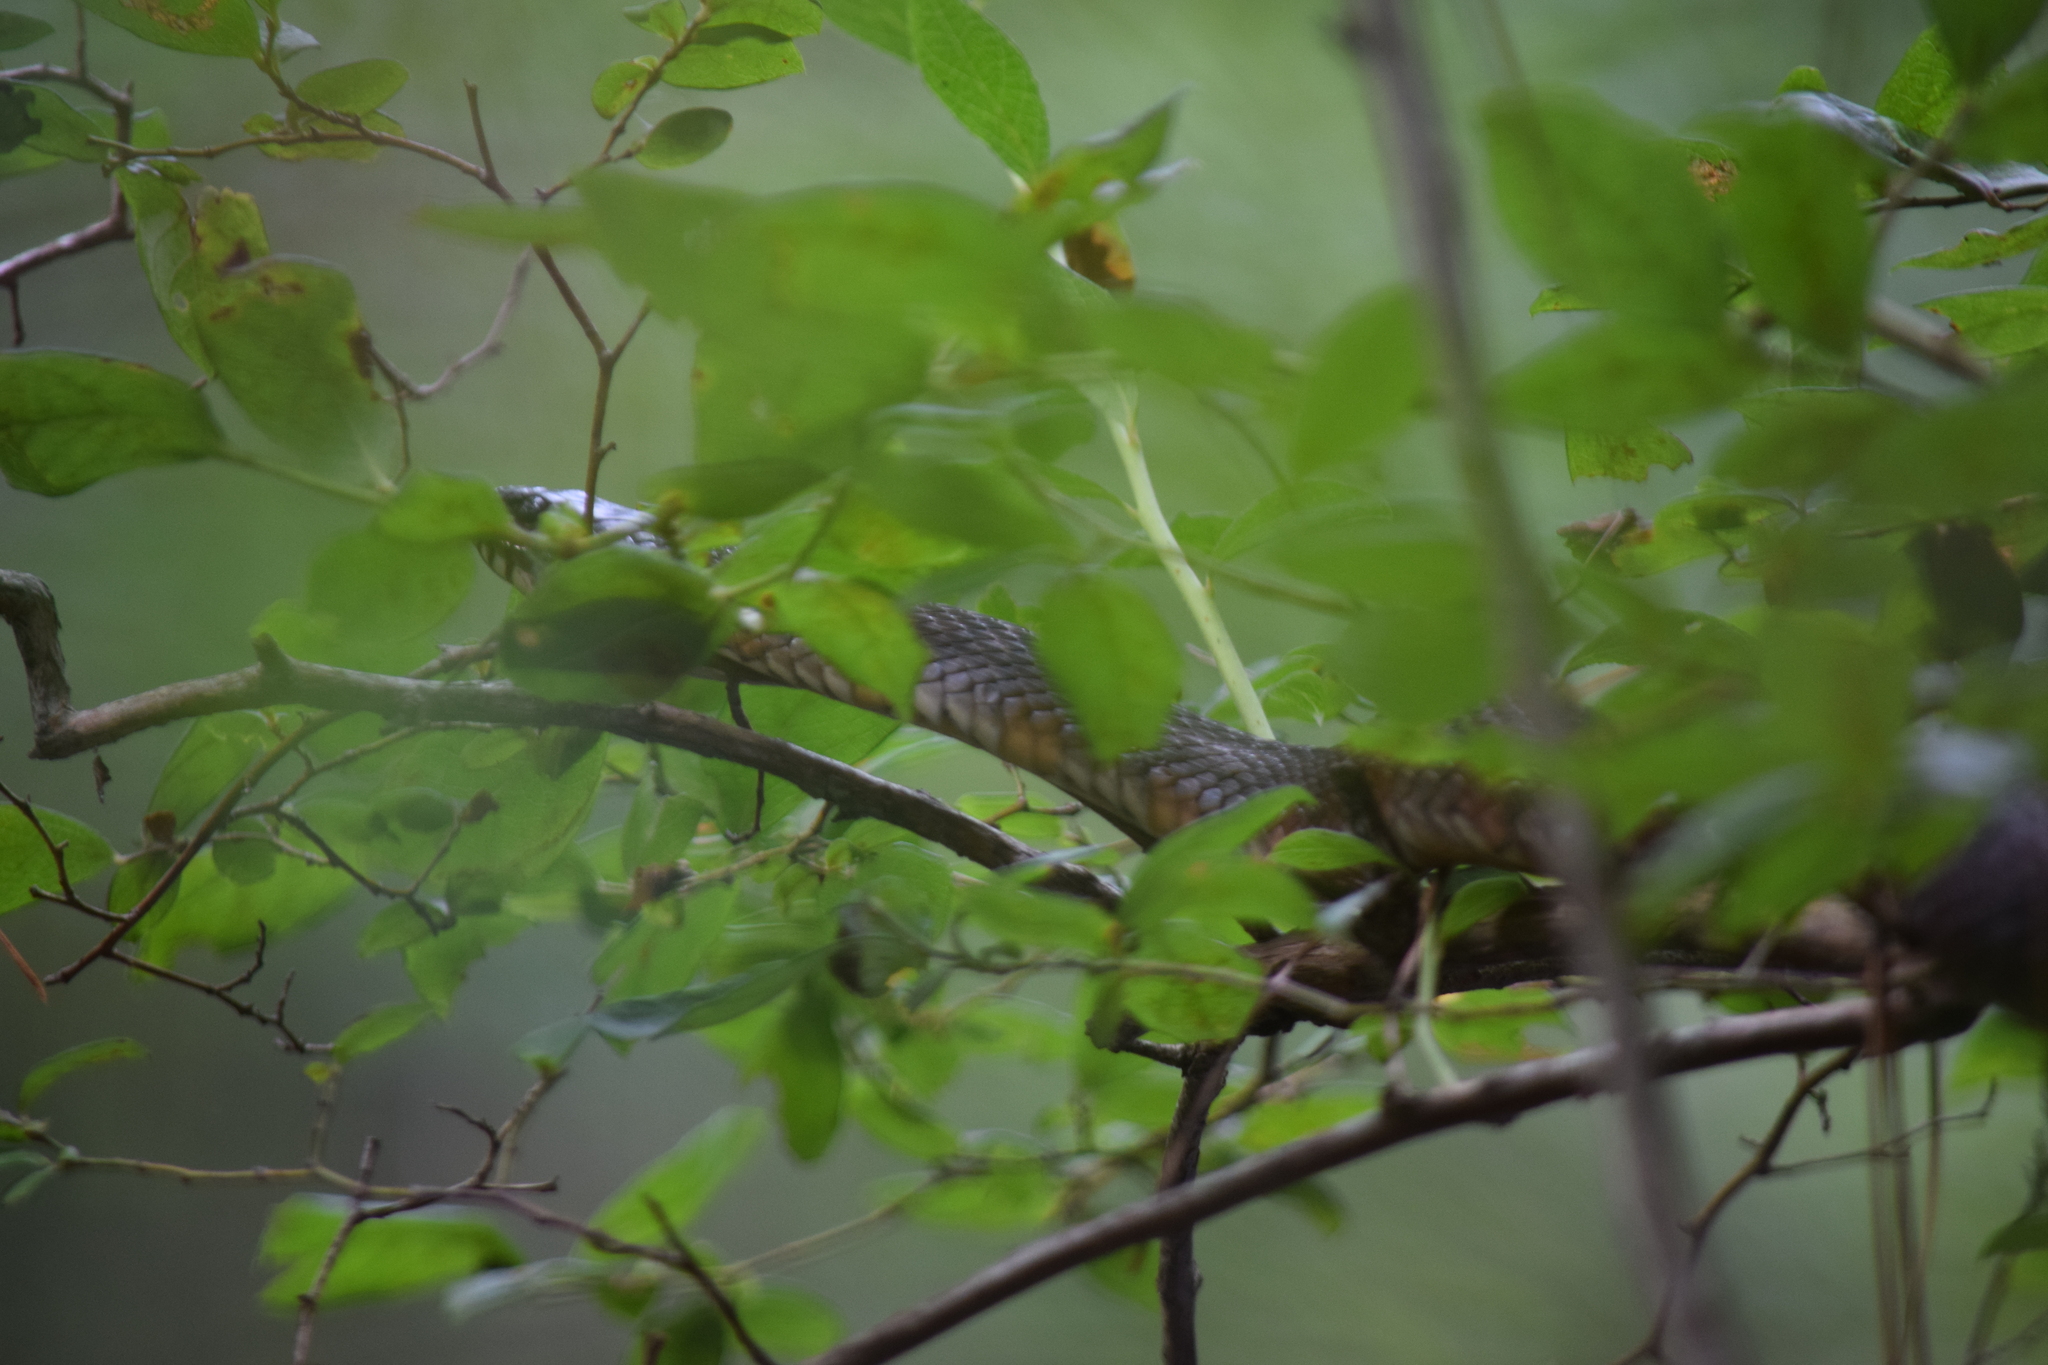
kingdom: Animalia
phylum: Chordata
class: Squamata
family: Colubridae
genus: Nerodia
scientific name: Nerodia sipedon
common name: Northern water snake
